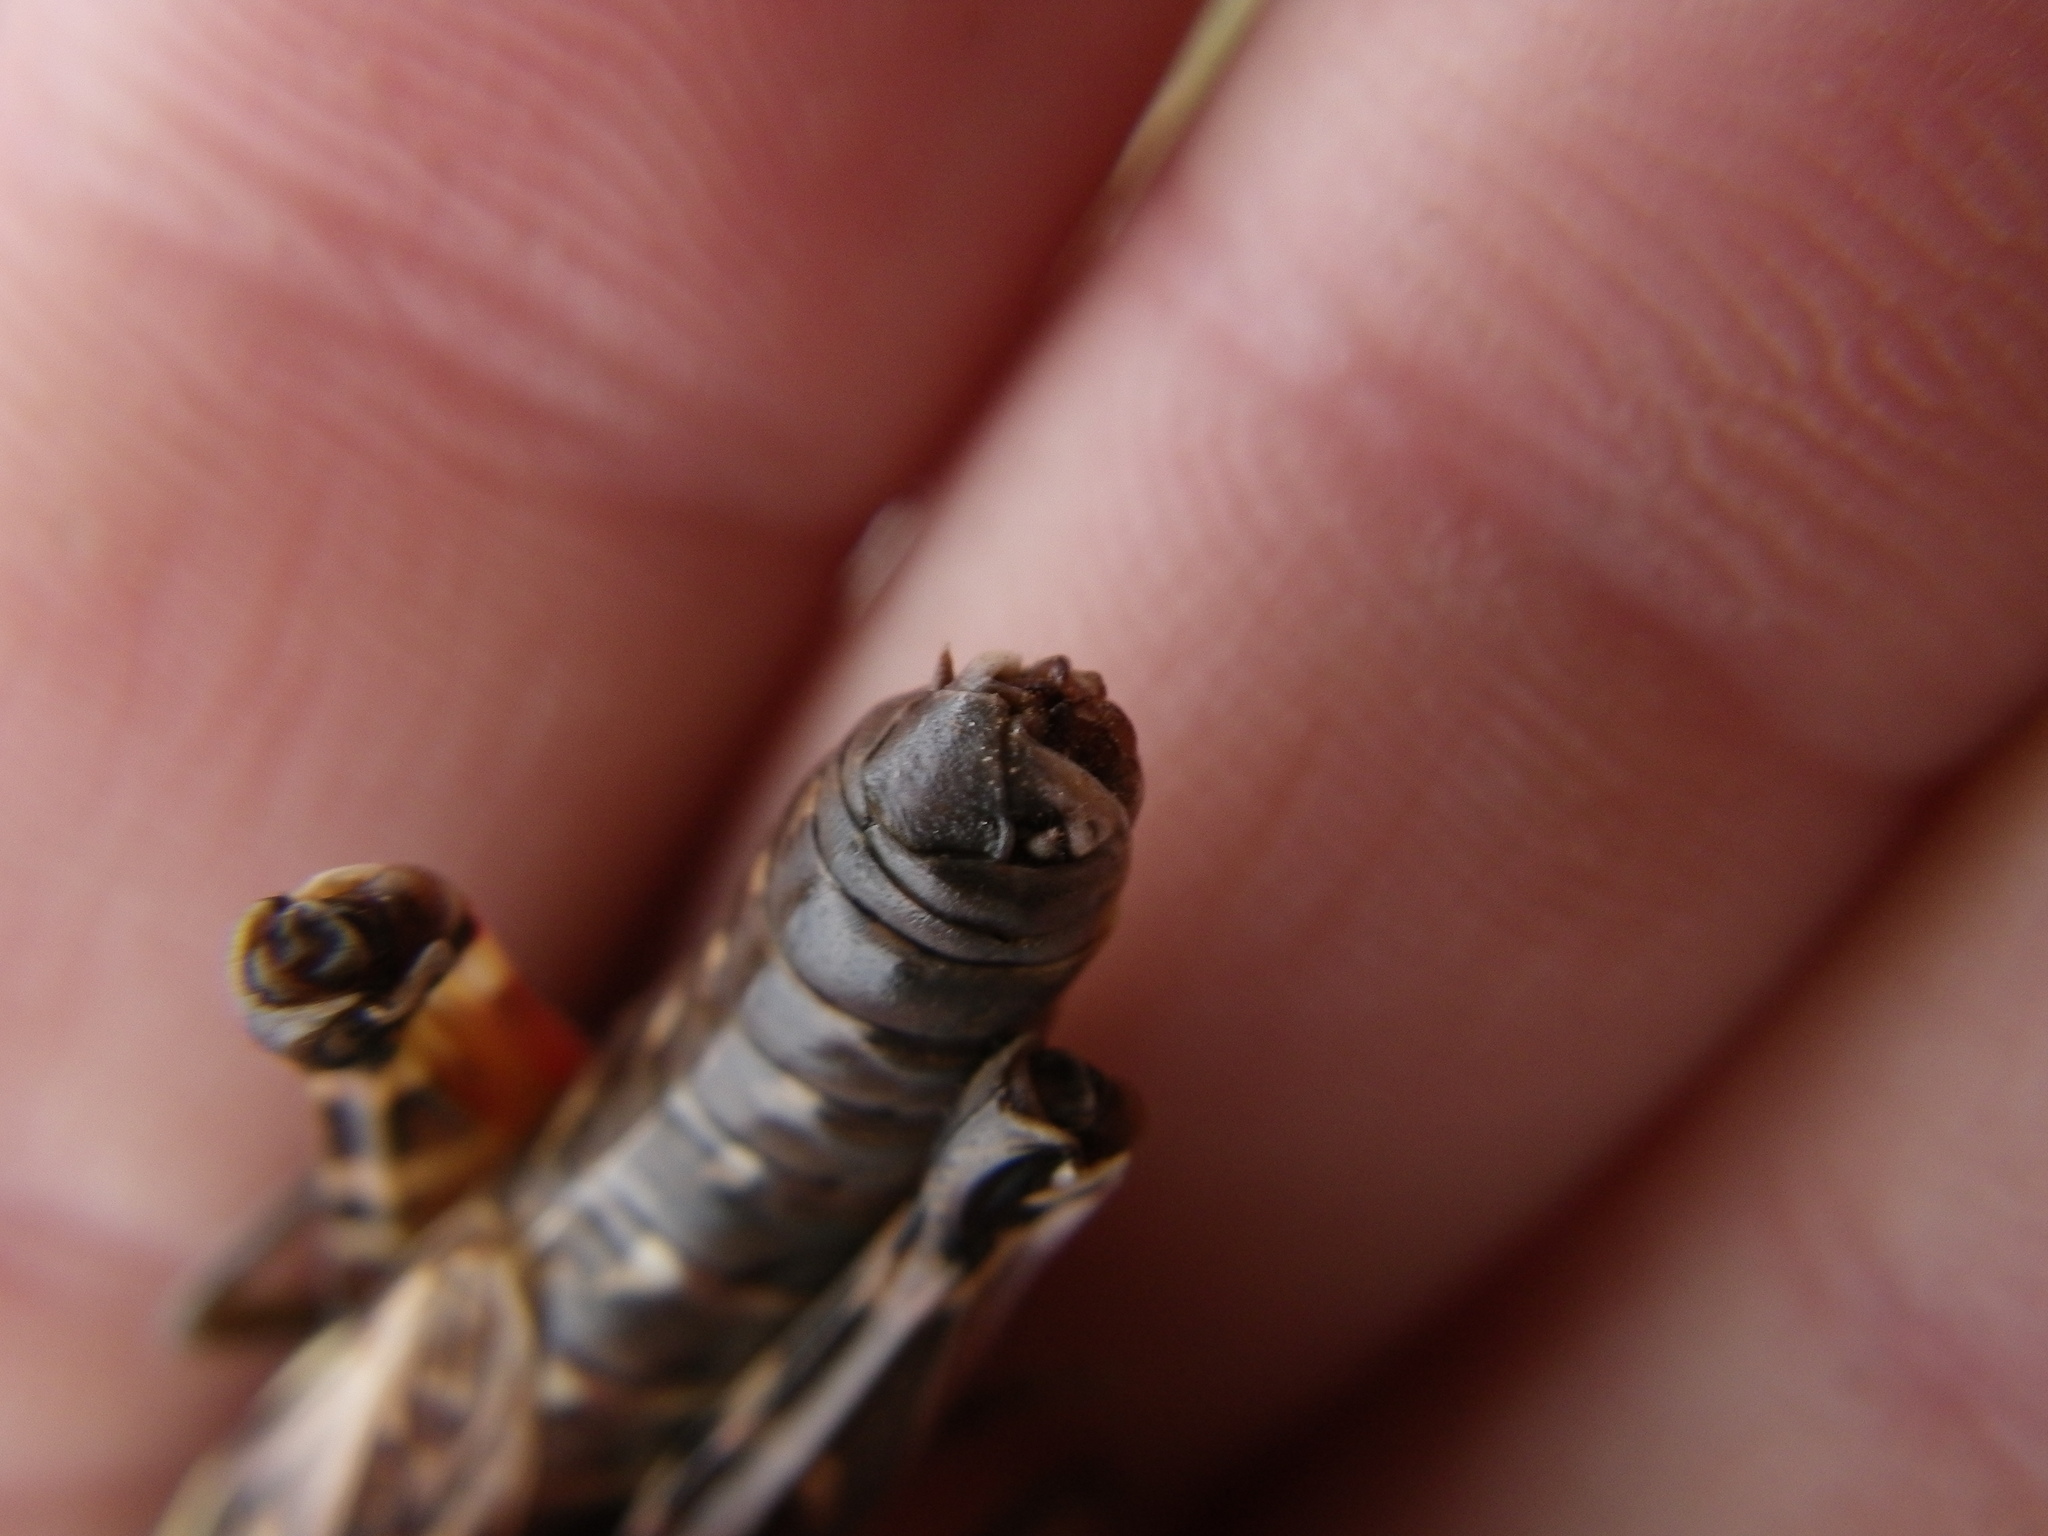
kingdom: Animalia
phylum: Arthropoda
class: Insecta
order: Orthoptera
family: Acrididae
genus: Arcyptera
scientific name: Arcyptera brevipennis
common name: Western banded grasshopper
